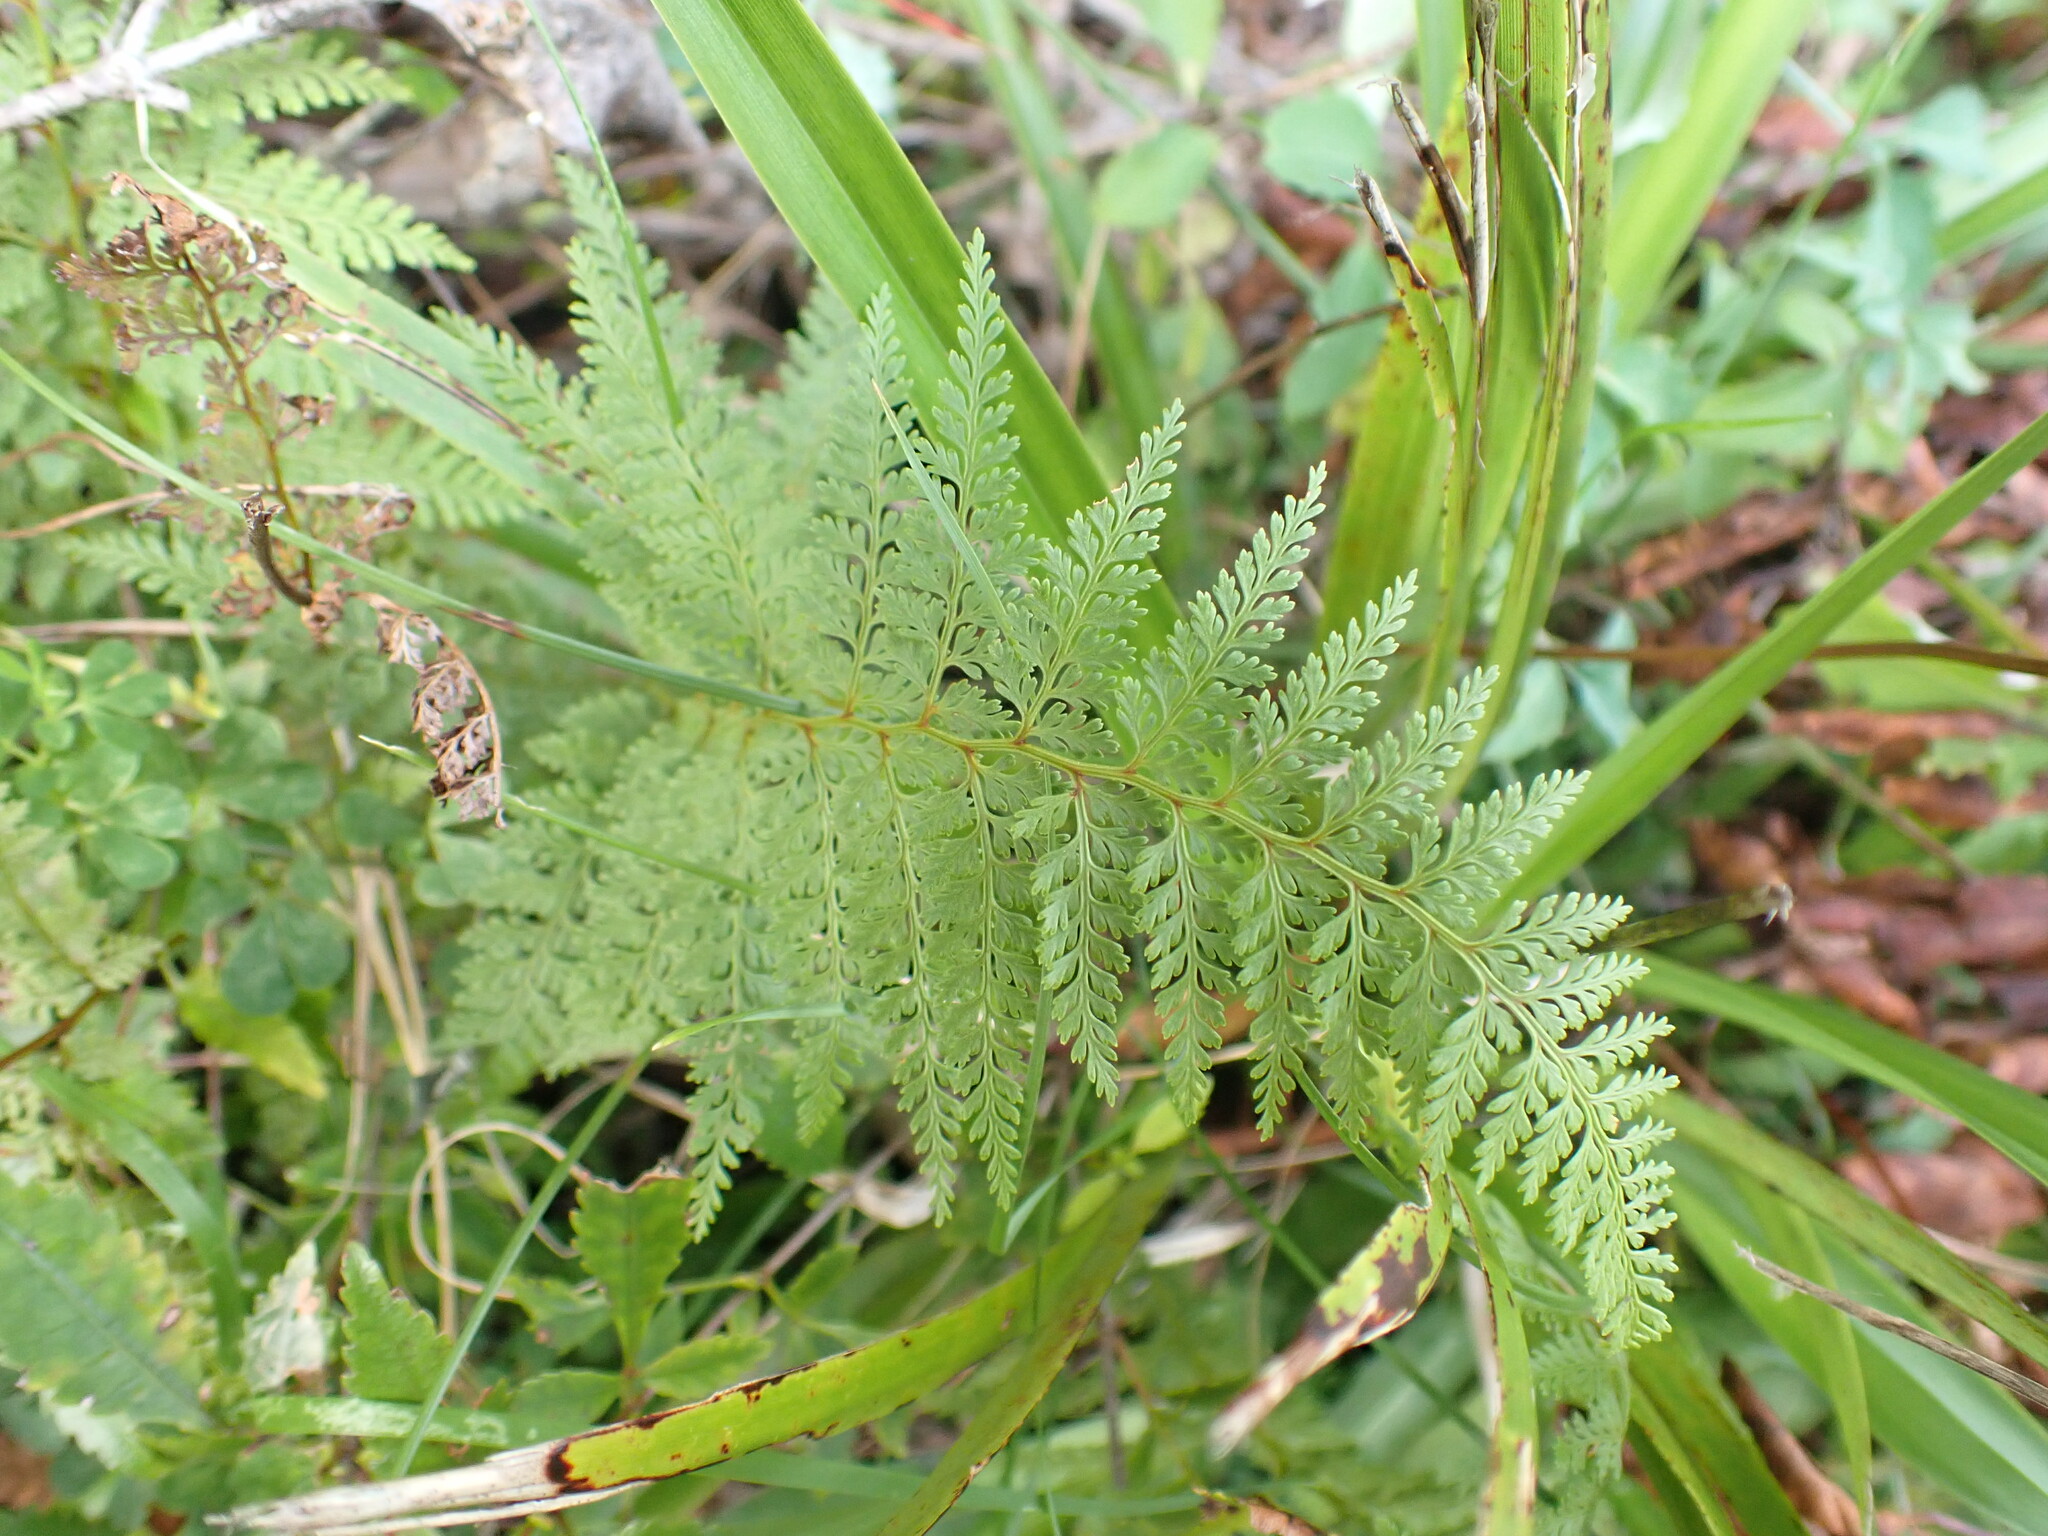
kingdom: Plantae
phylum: Tracheophyta
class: Polypodiopsida
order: Polypodiales
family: Dennstaedtiaceae
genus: Paesia
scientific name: Paesia scaberula
